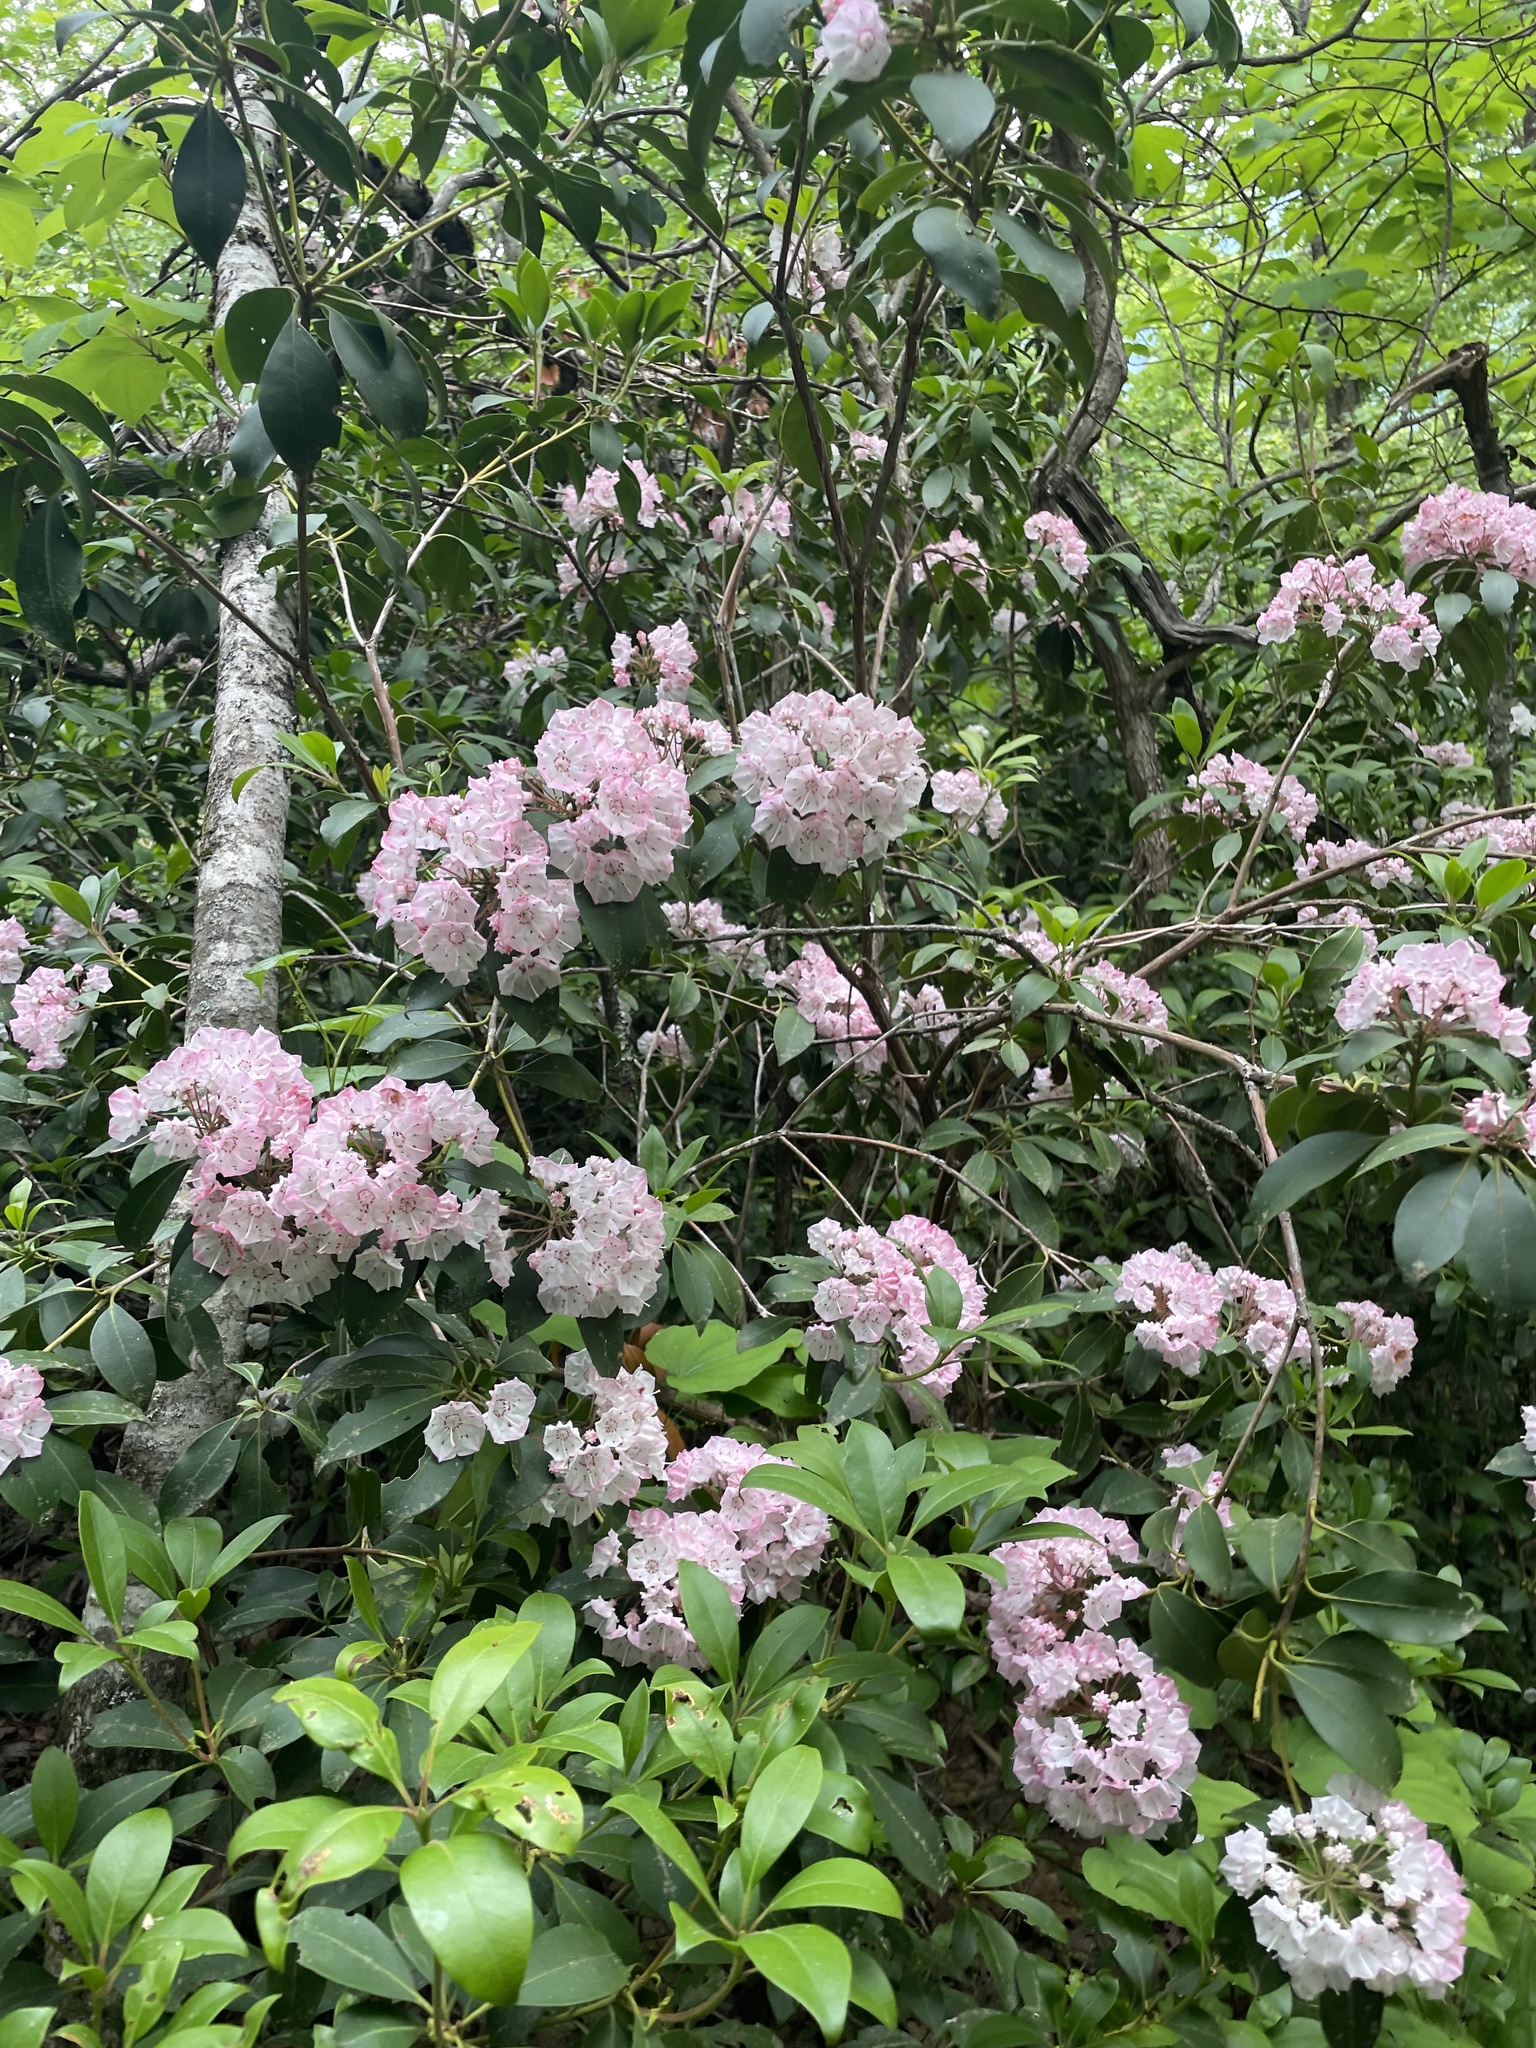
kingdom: Plantae
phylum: Tracheophyta
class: Magnoliopsida
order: Ericales
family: Ericaceae
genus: Kalmia
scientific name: Kalmia latifolia
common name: Mountain-laurel
